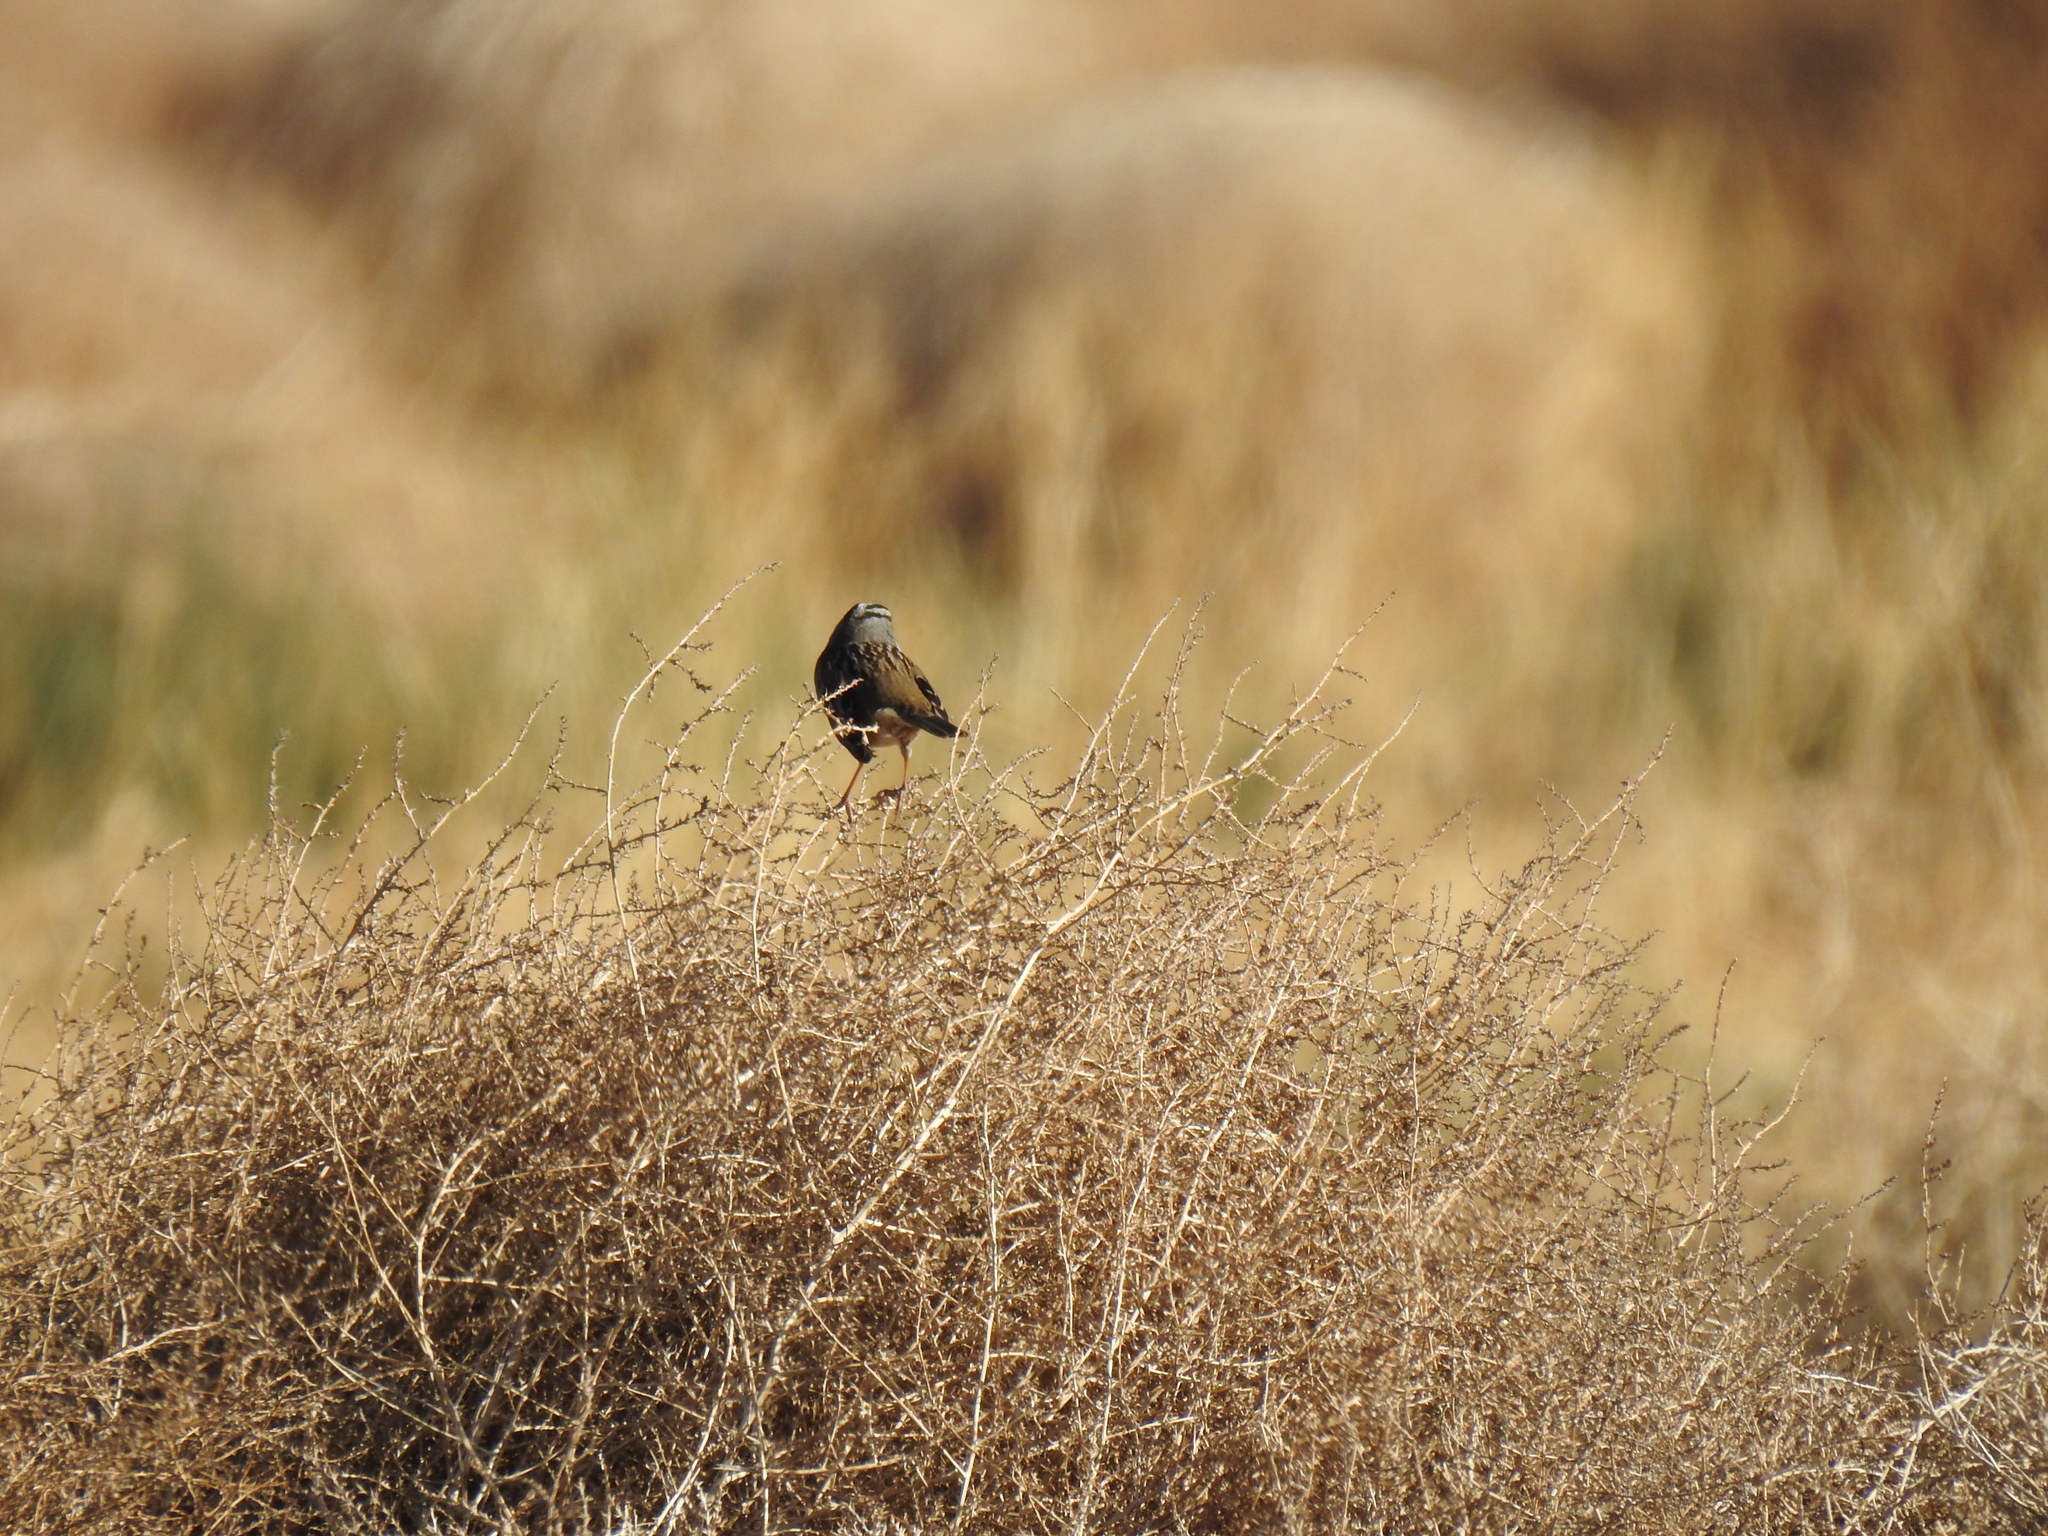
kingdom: Animalia
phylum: Chordata
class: Aves
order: Passeriformes
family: Passerellidae
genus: Zonotrichia
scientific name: Zonotrichia leucophrys
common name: White-crowned sparrow
